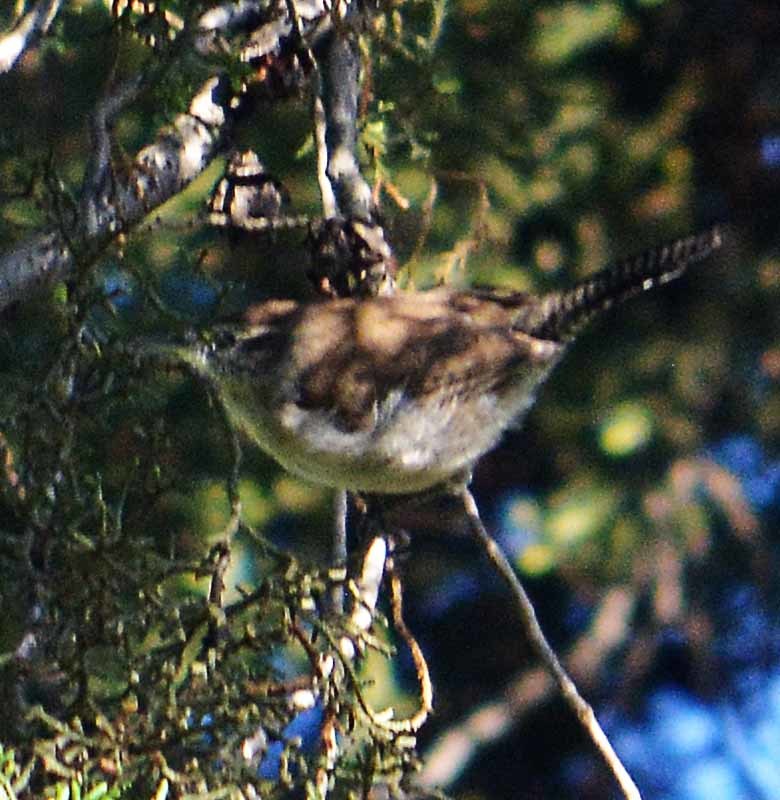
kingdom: Animalia
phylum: Chordata
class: Aves
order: Passeriformes
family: Troglodytidae
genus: Thryomanes
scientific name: Thryomanes bewickii
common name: Bewick's wren
